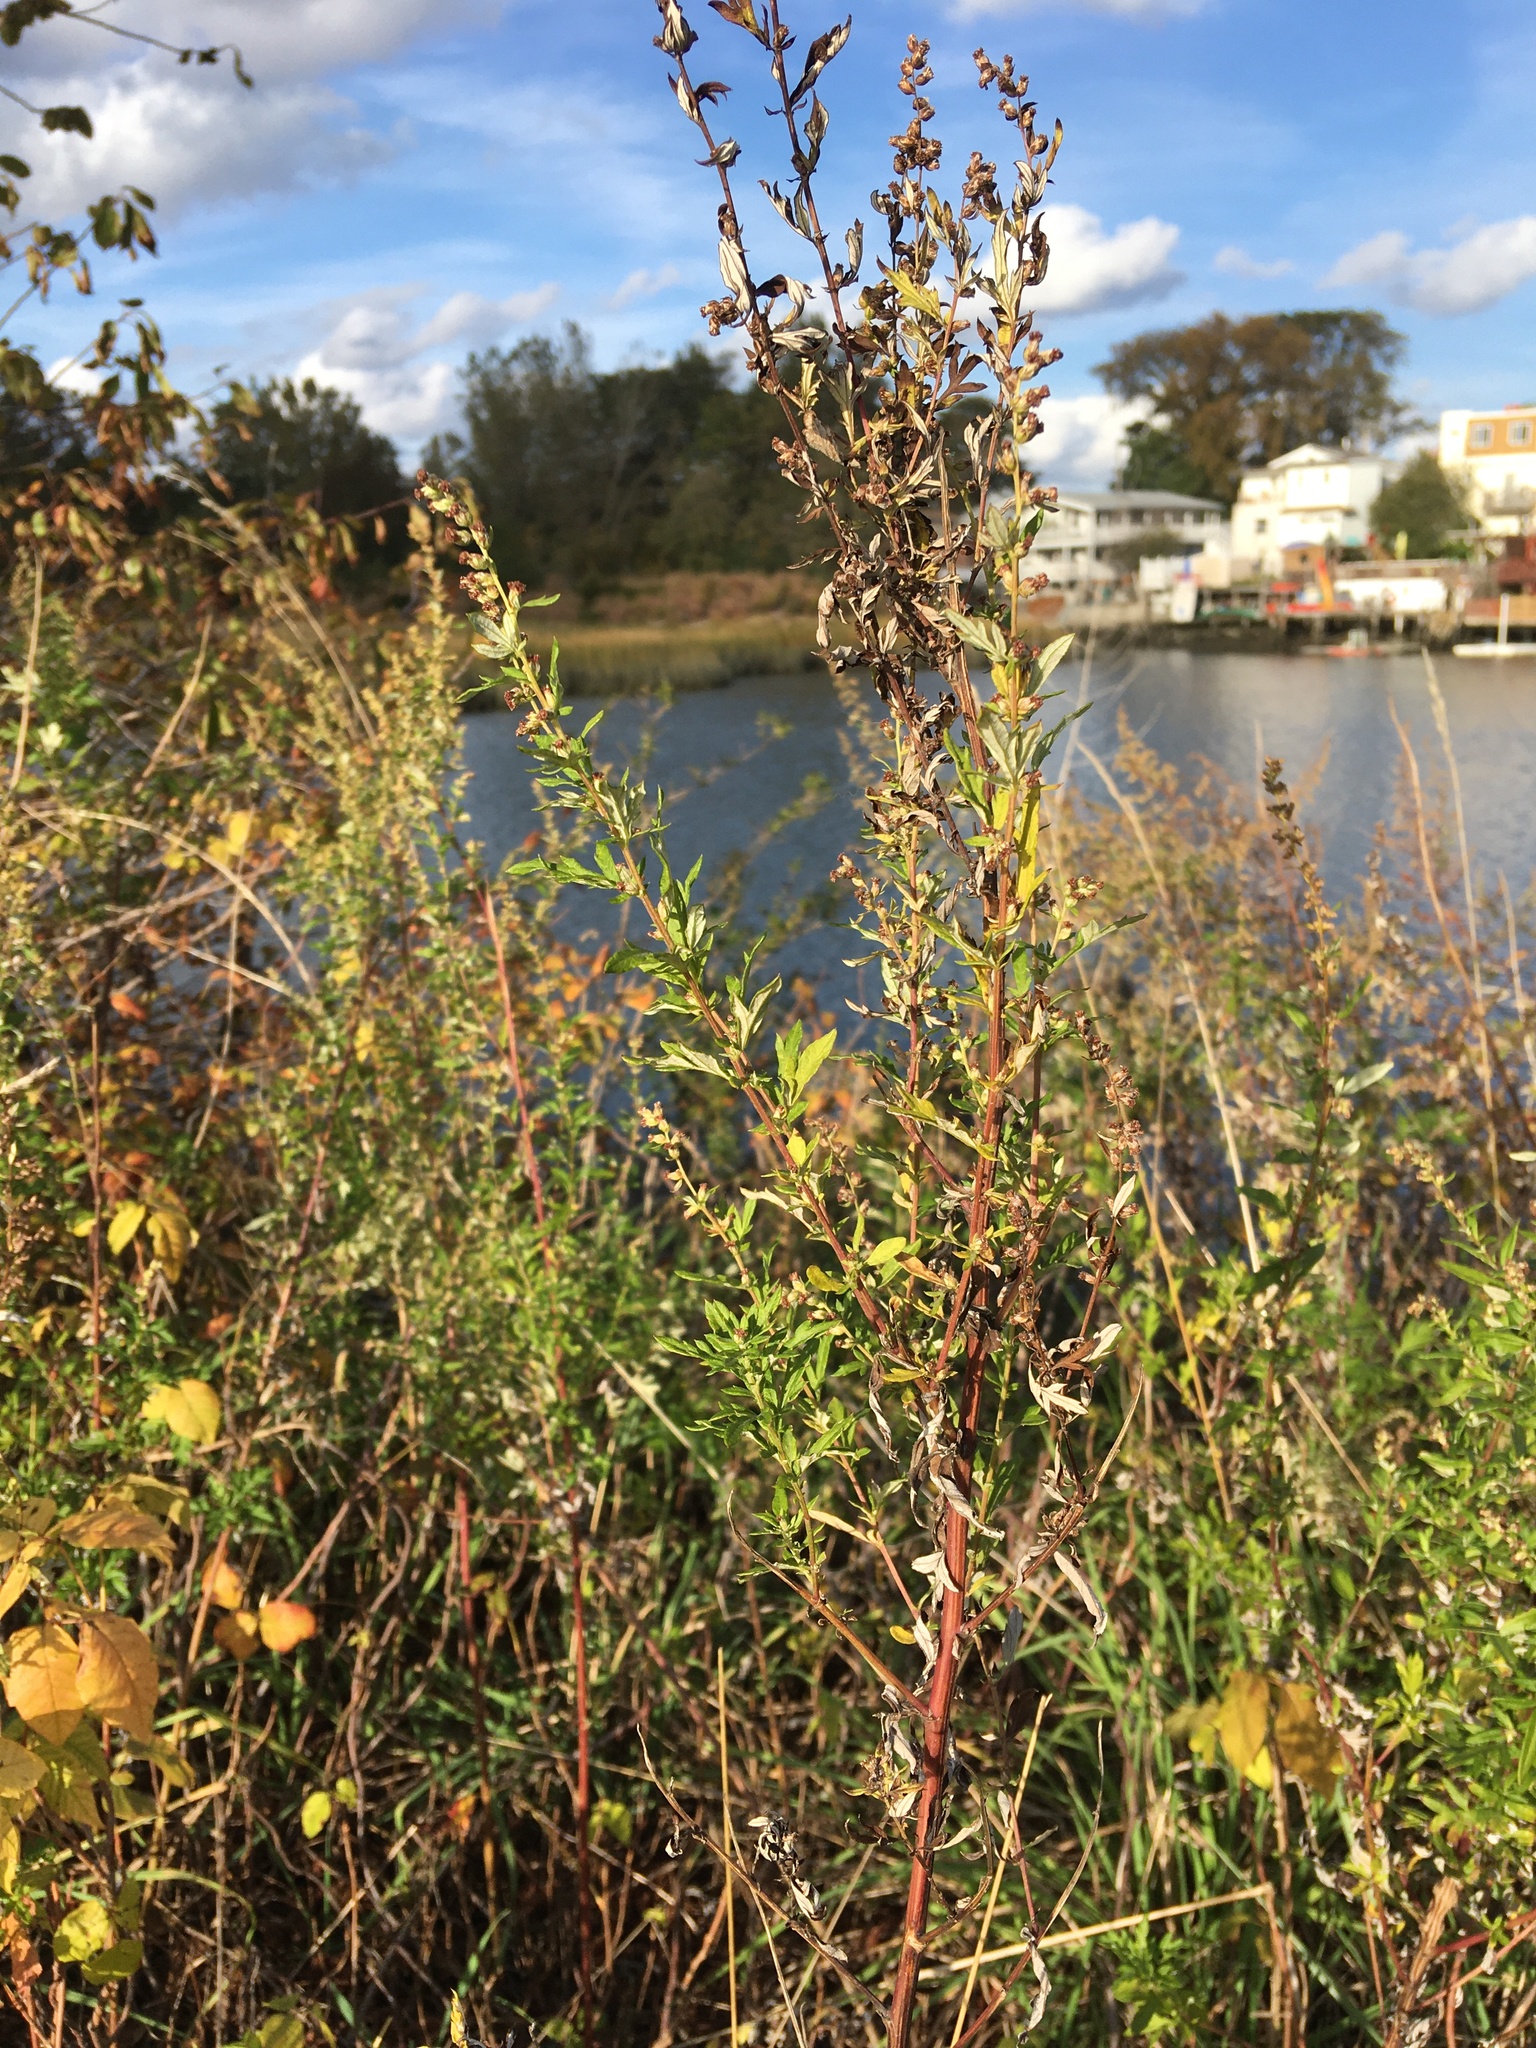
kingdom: Plantae
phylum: Tracheophyta
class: Magnoliopsida
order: Asterales
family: Asteraceae
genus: Artemisia
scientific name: Artemisia vulgaris
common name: Mugwort
